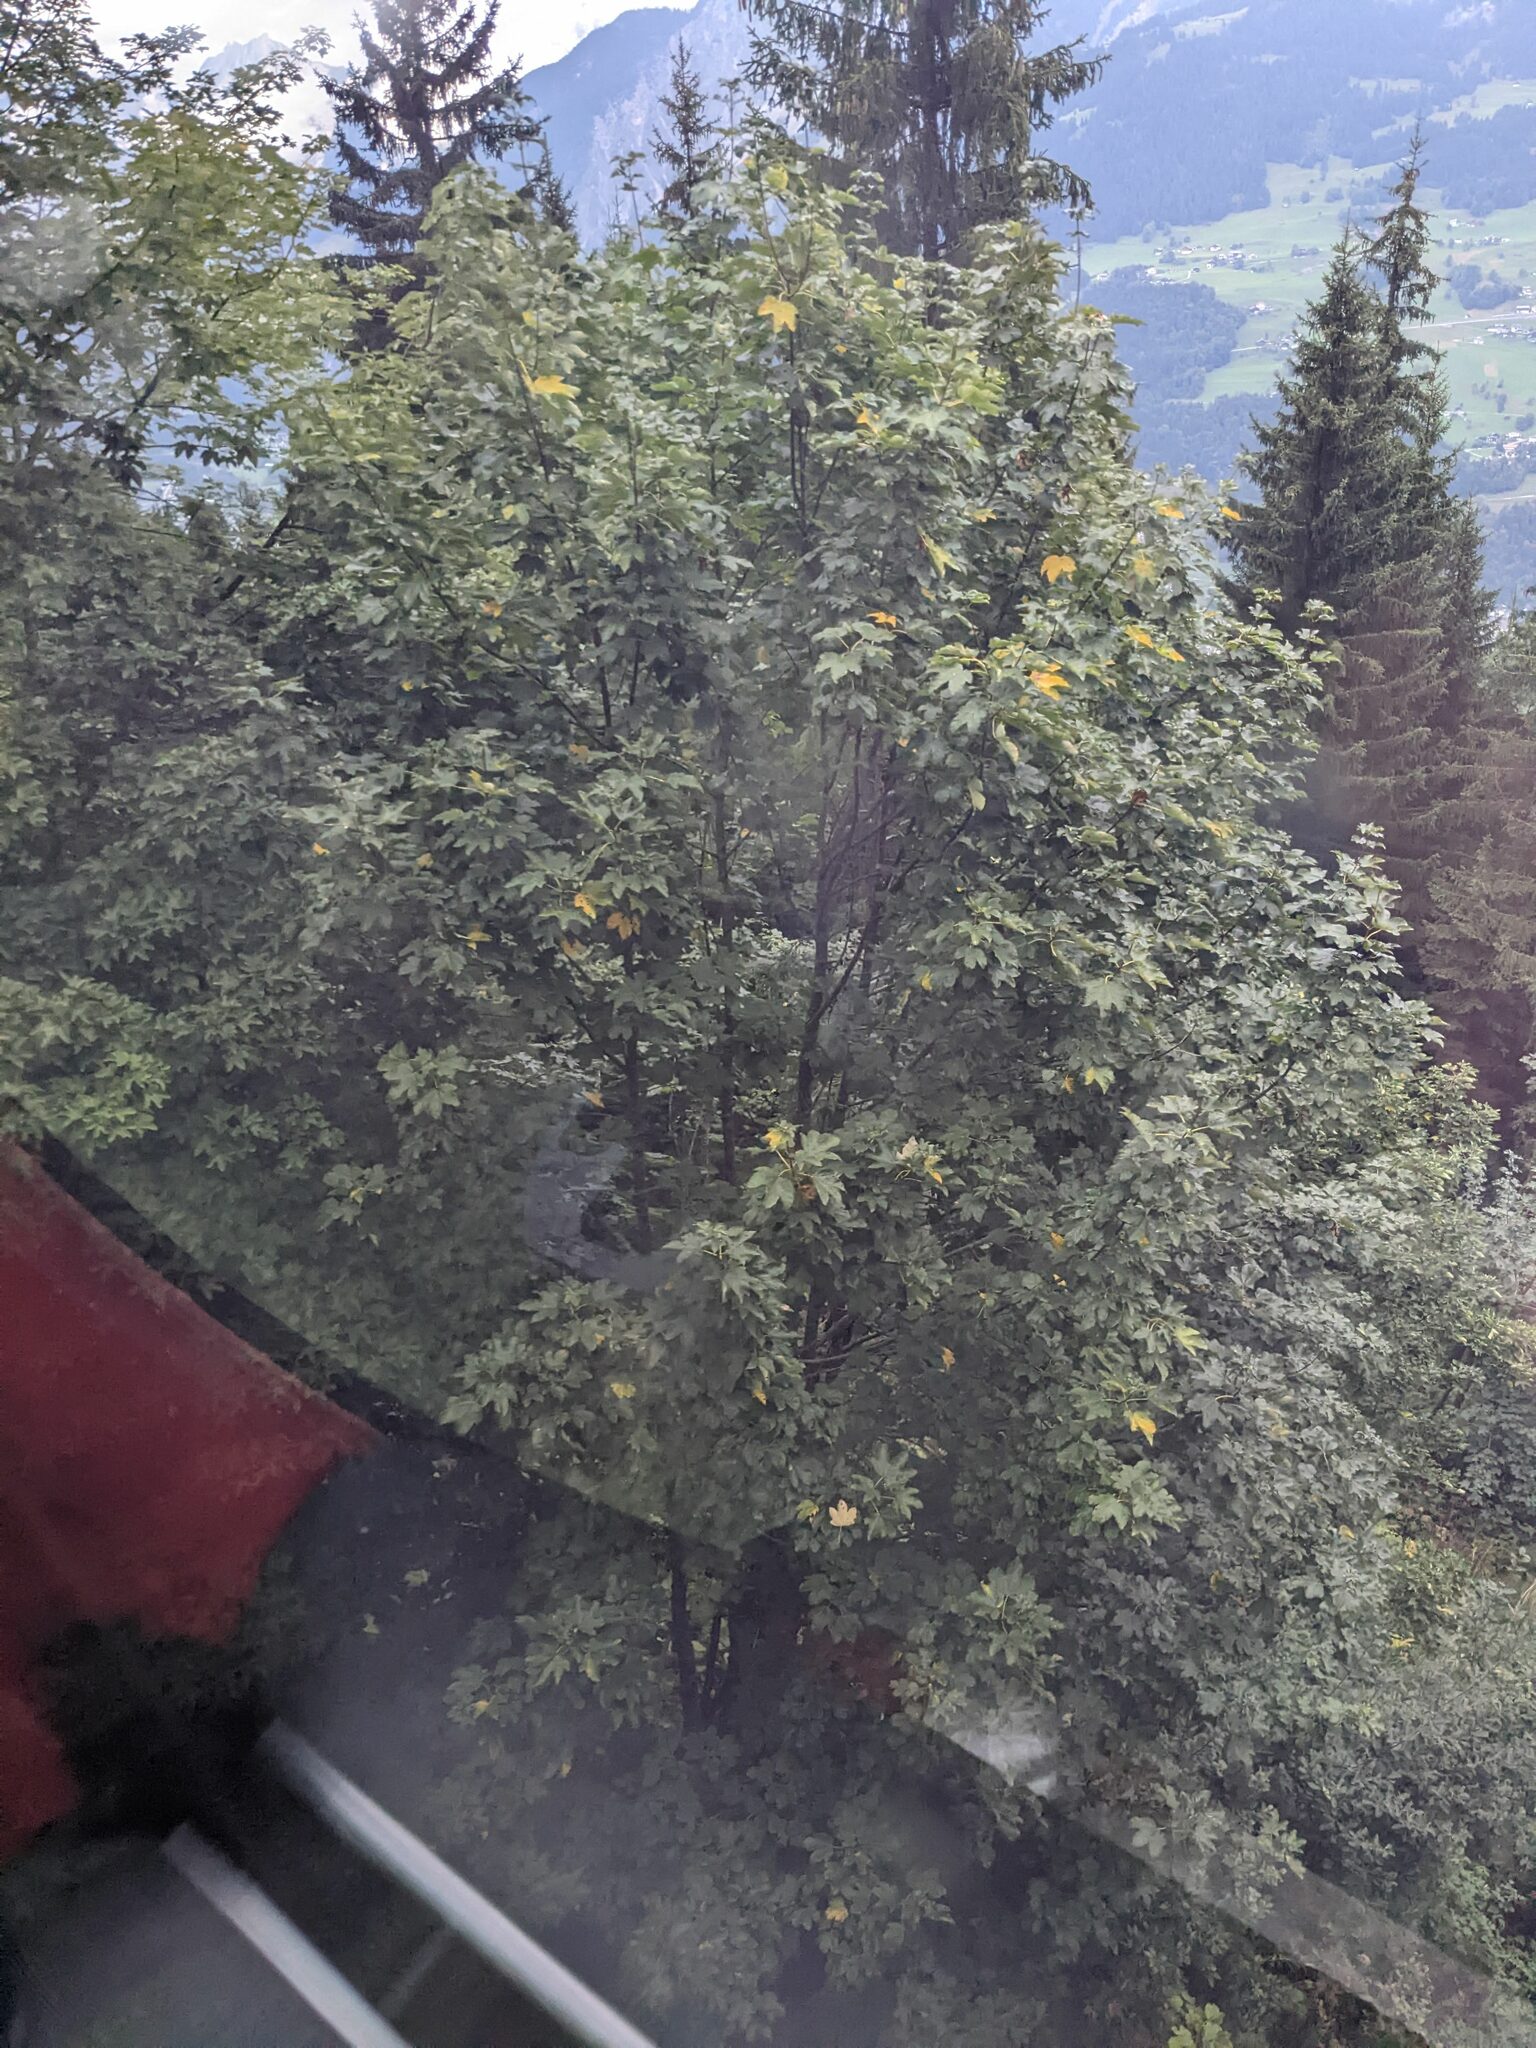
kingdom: Plantae
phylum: Tracheophyta
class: Magnoliopsida
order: Sapindales
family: Sapindaceae
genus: Acer
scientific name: Acer pseudoplatanus
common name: Sycamore
